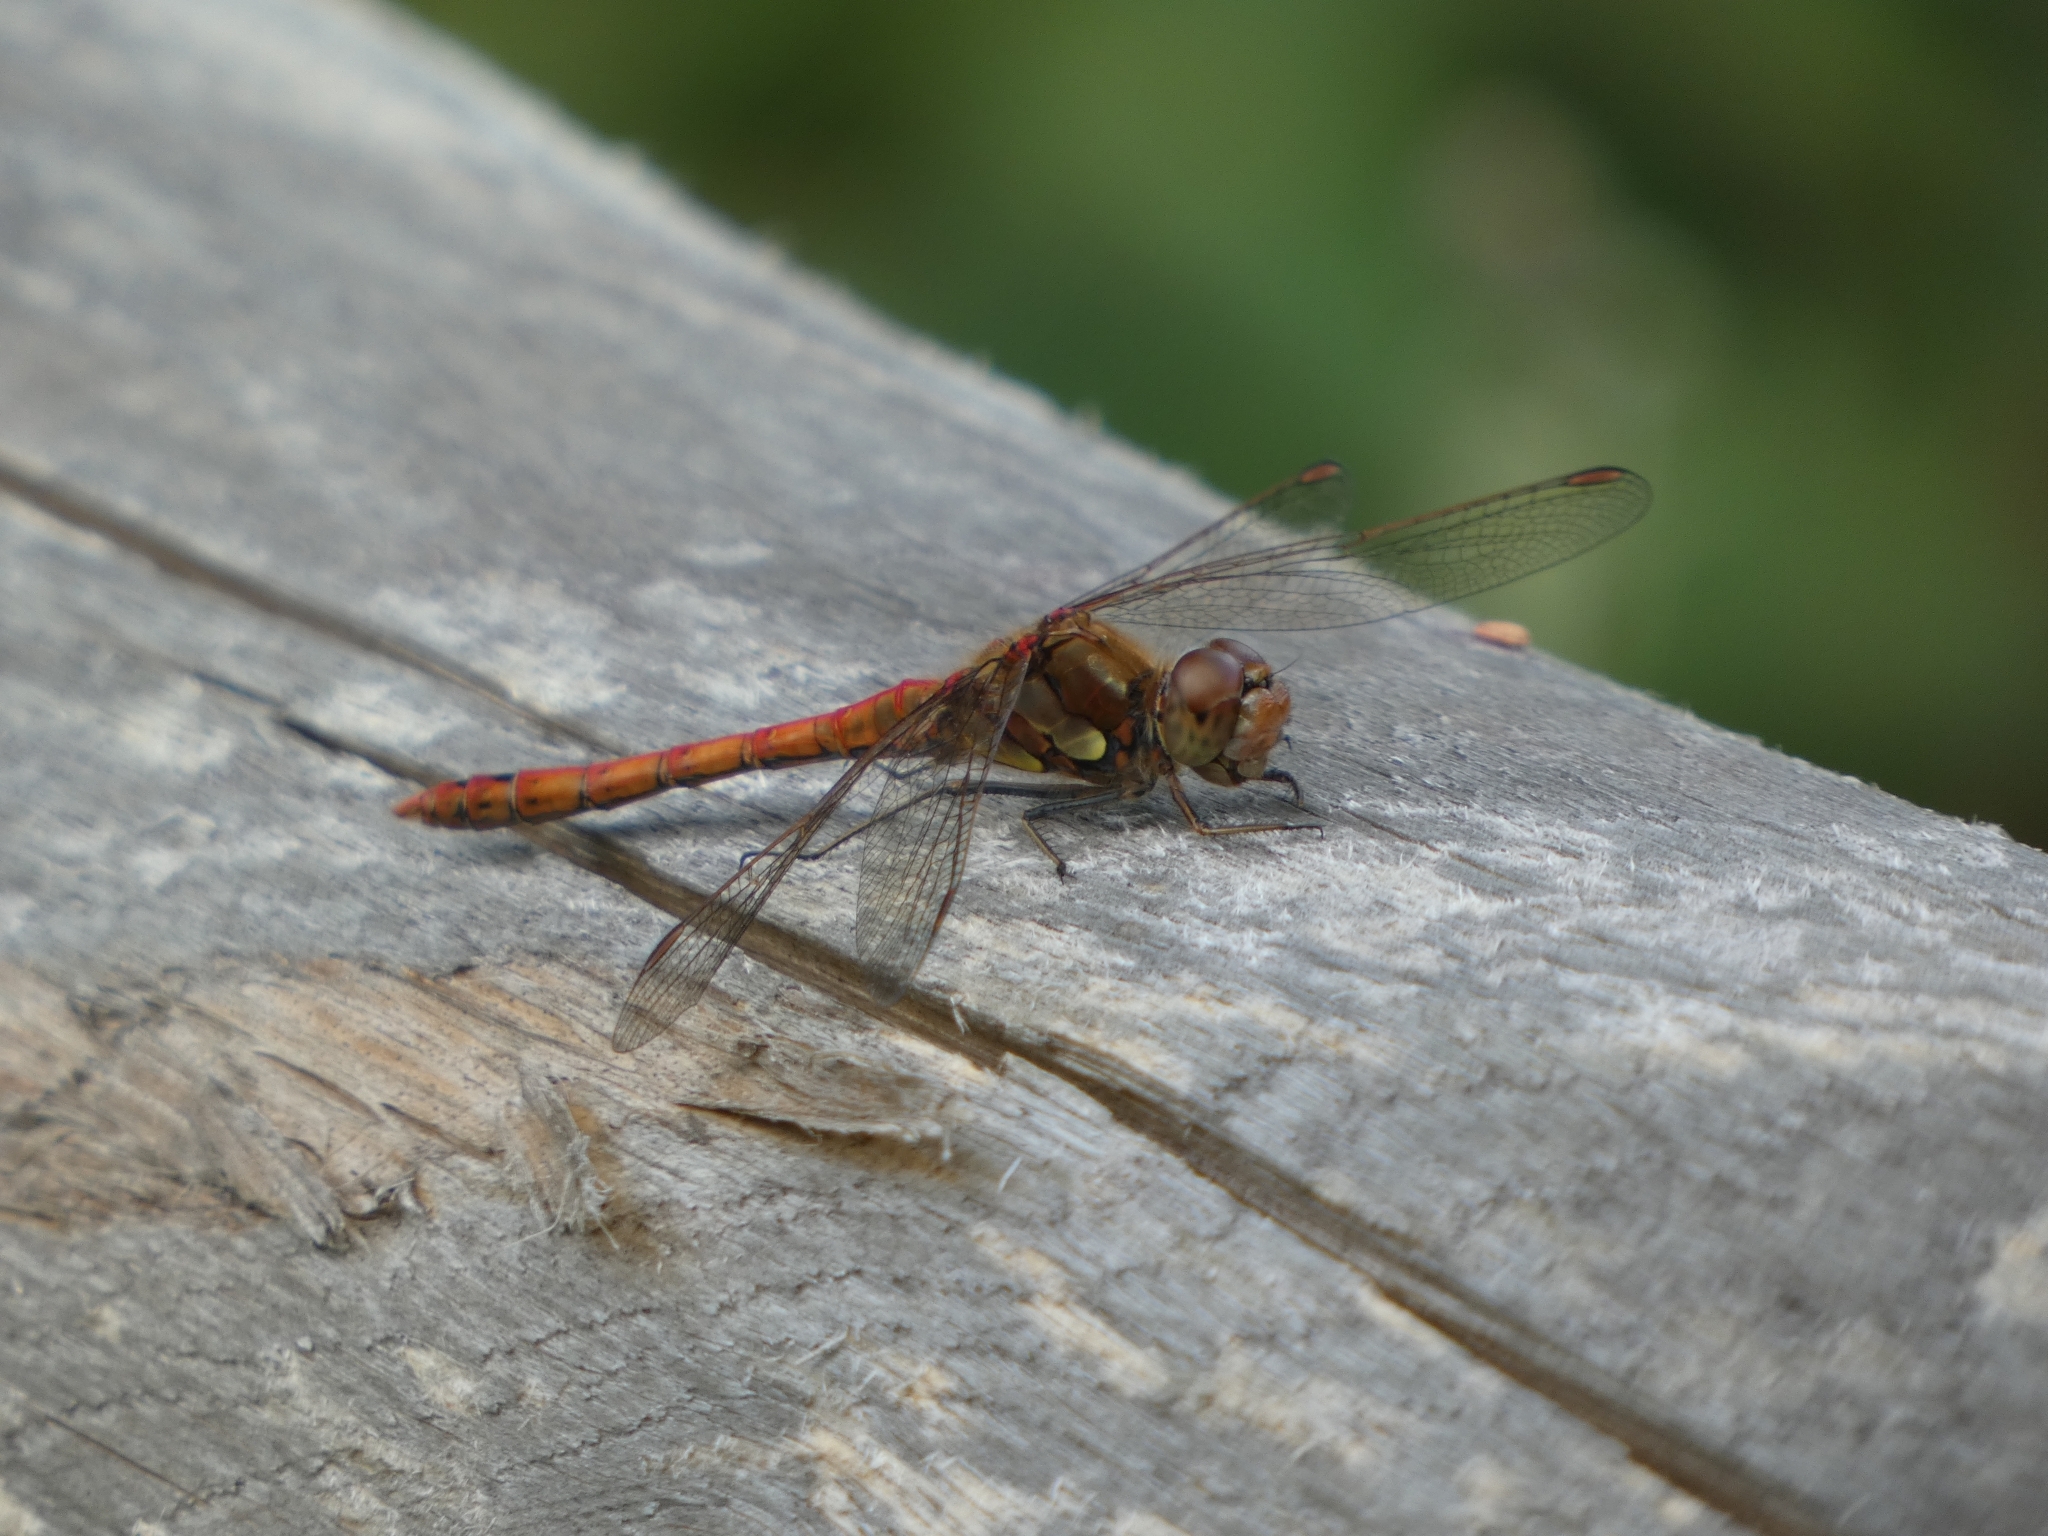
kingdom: Animalia
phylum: Arthropoda
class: Insecta
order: Odonata
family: Libellulidae
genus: Sympetrum
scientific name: Sympetrum striolatum
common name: Common darter
